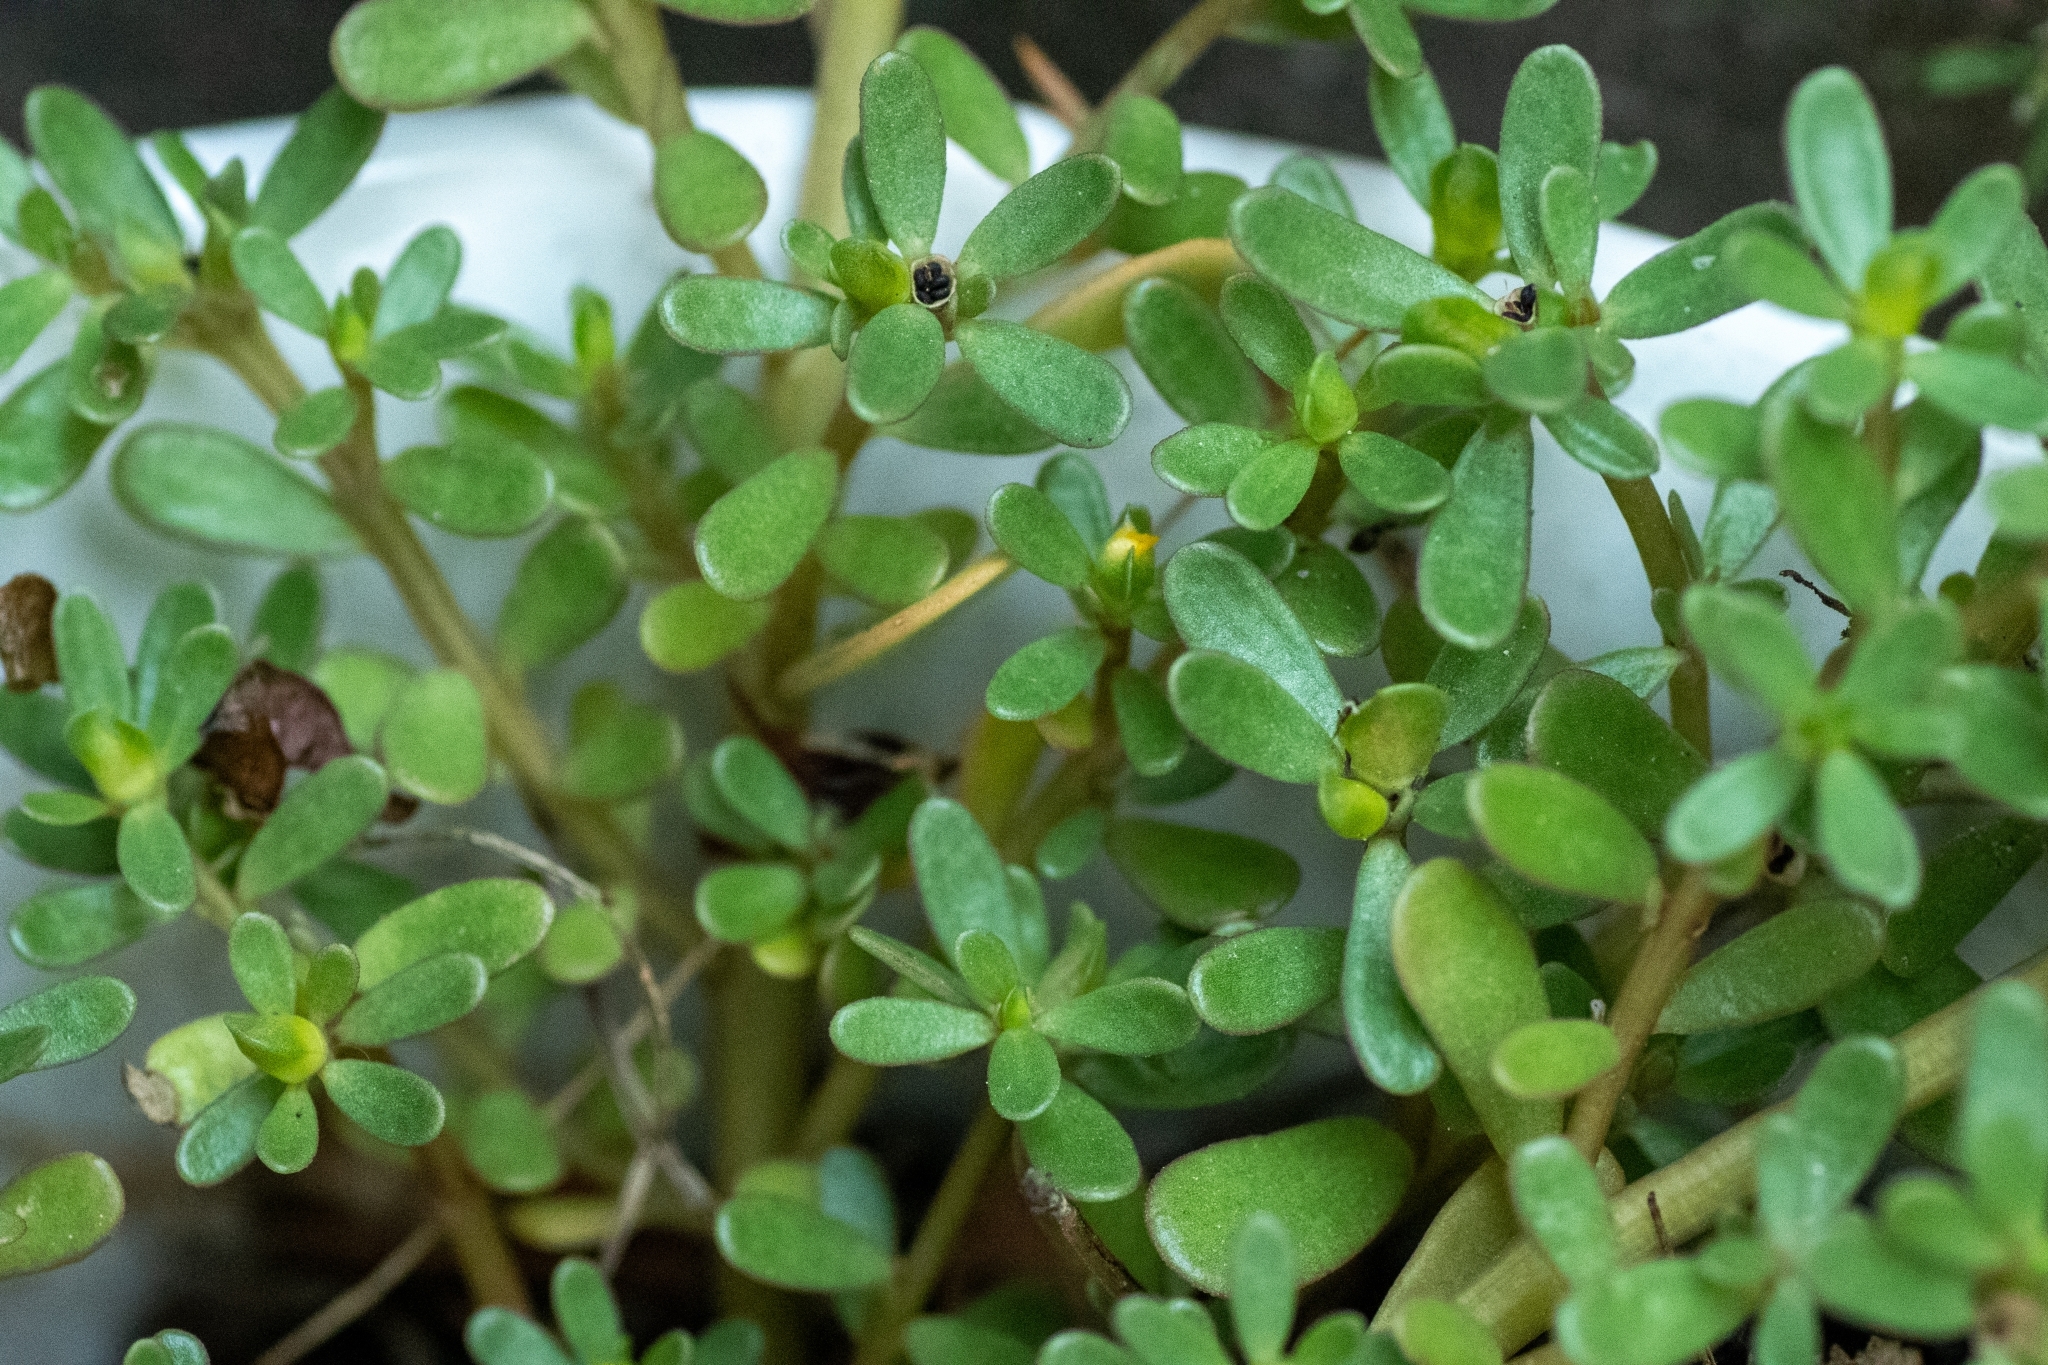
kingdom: Plantae
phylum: Tracheophyta
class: Magnoliopsida
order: Caryophyllales
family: Portulacaceae
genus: Portulaca
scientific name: Portulaca oleracea
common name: Common purslane
